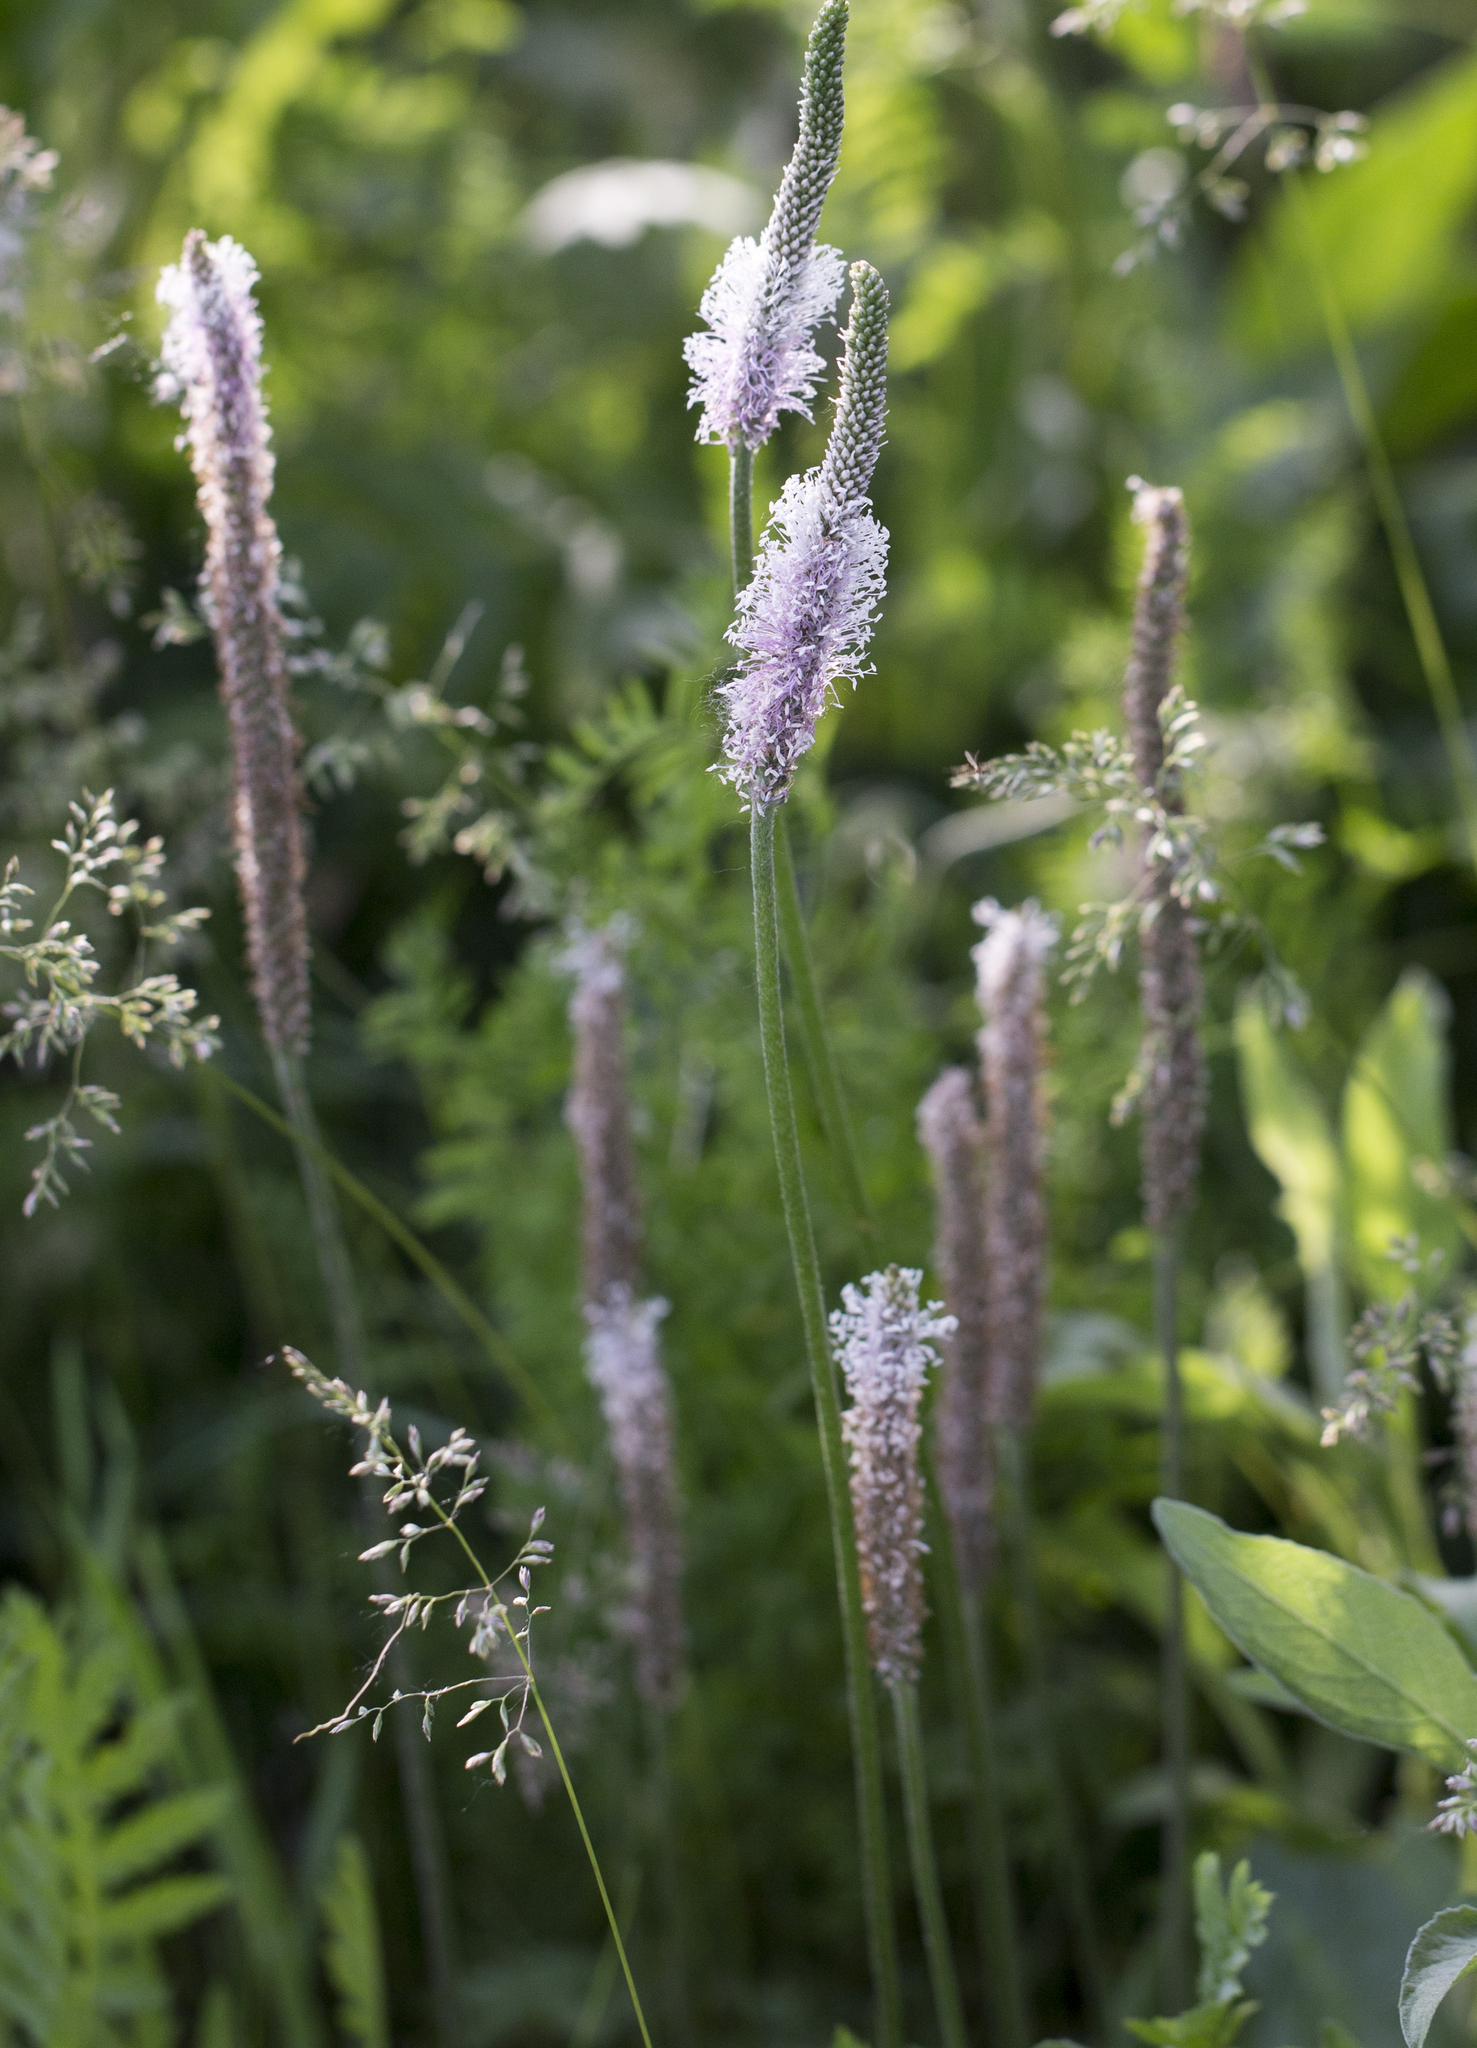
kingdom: Plantae
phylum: Tracheophyta
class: Magnoliopsida
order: Lamiales
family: Plantaginaceae
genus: Plantago
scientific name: Plantago media
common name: Hoary plantain
